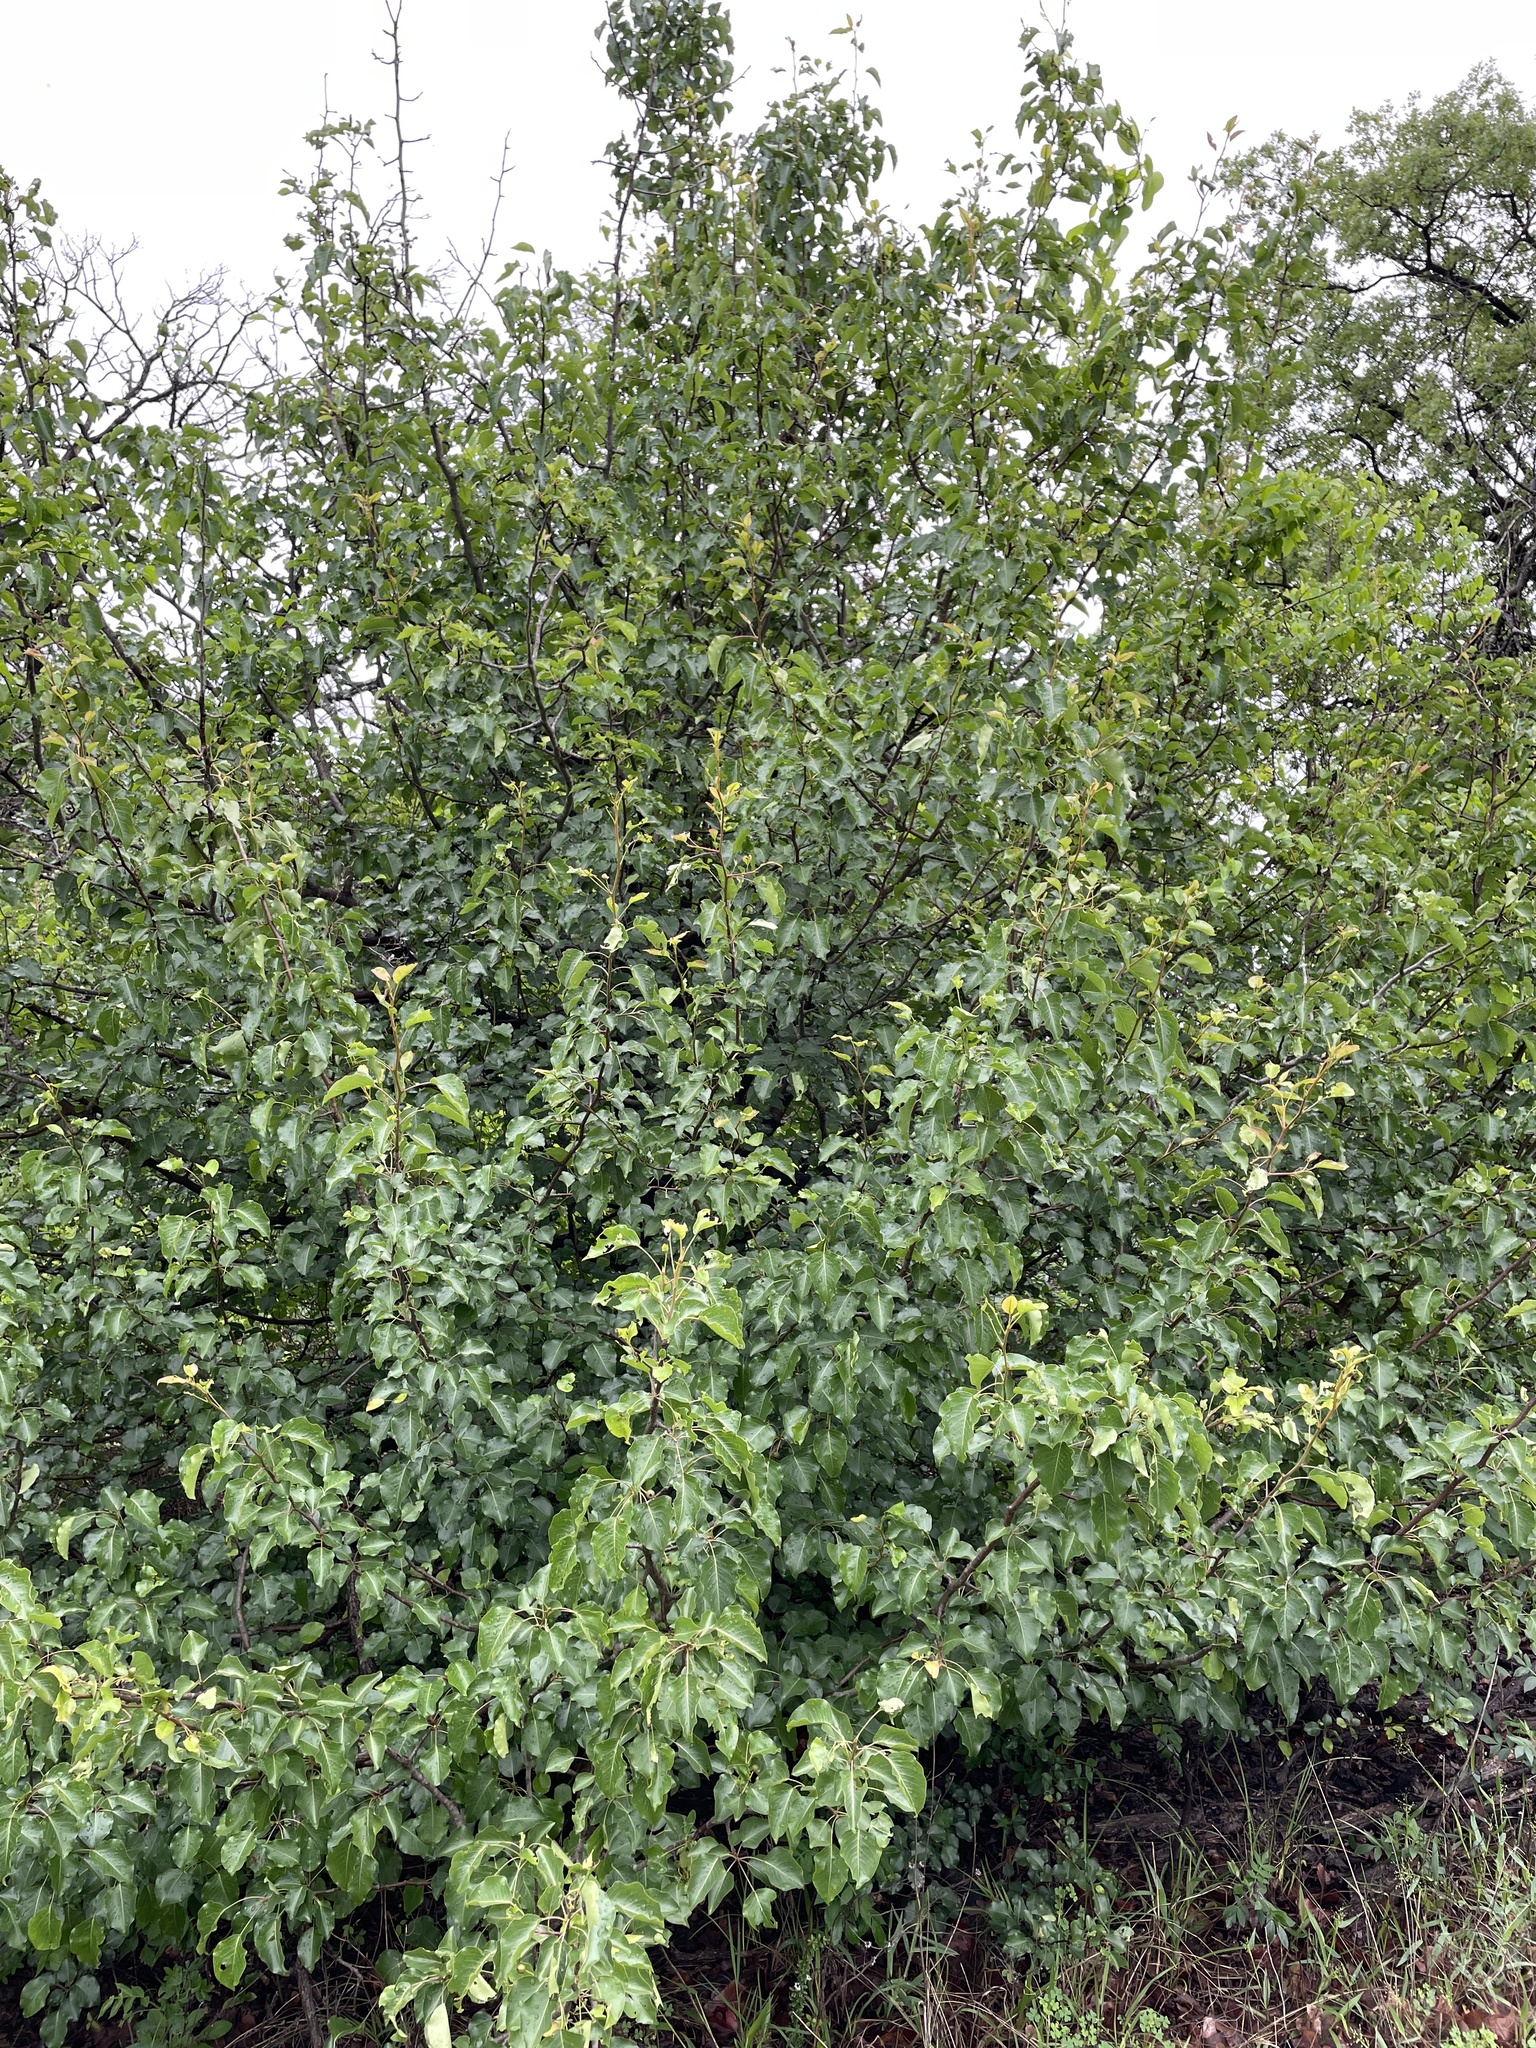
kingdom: Plantae
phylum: Tracheophyta
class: Magnoliopsida
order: Rosales
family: Rosaceae
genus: Pyrus
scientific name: Pyrus calleryana
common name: Callery pear
